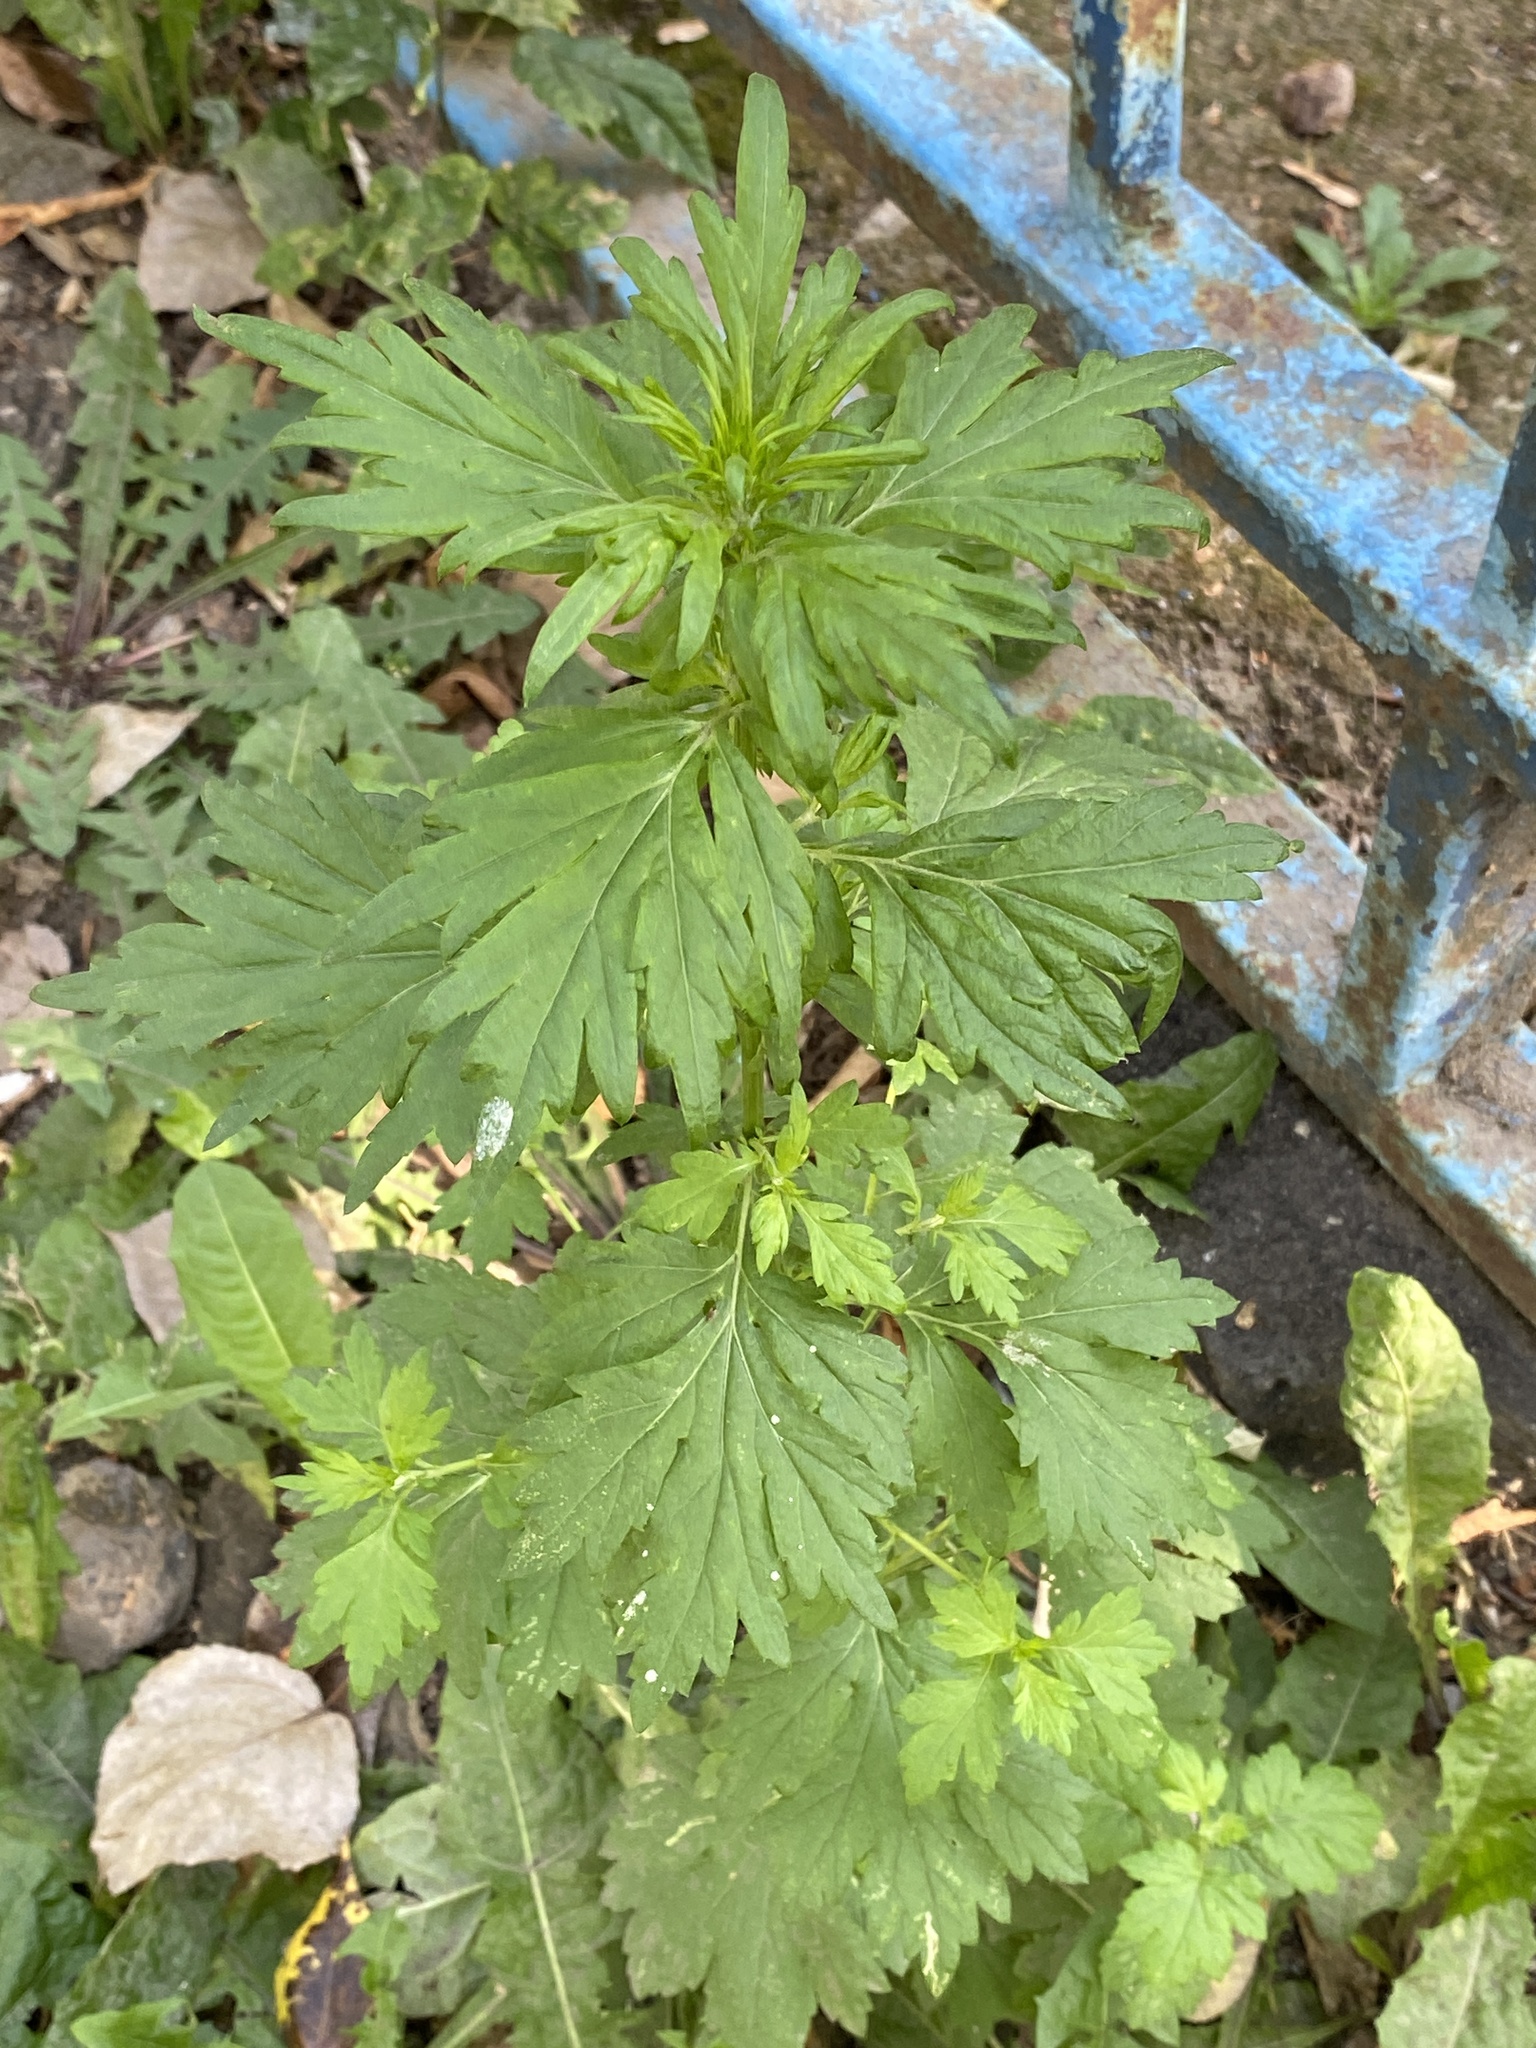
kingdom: Plantae
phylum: Tracheophyta
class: Magnoliopsida
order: Asterales
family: Asteraceae
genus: Artemisia
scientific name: Artemisia vulgaris
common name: Mugwort
